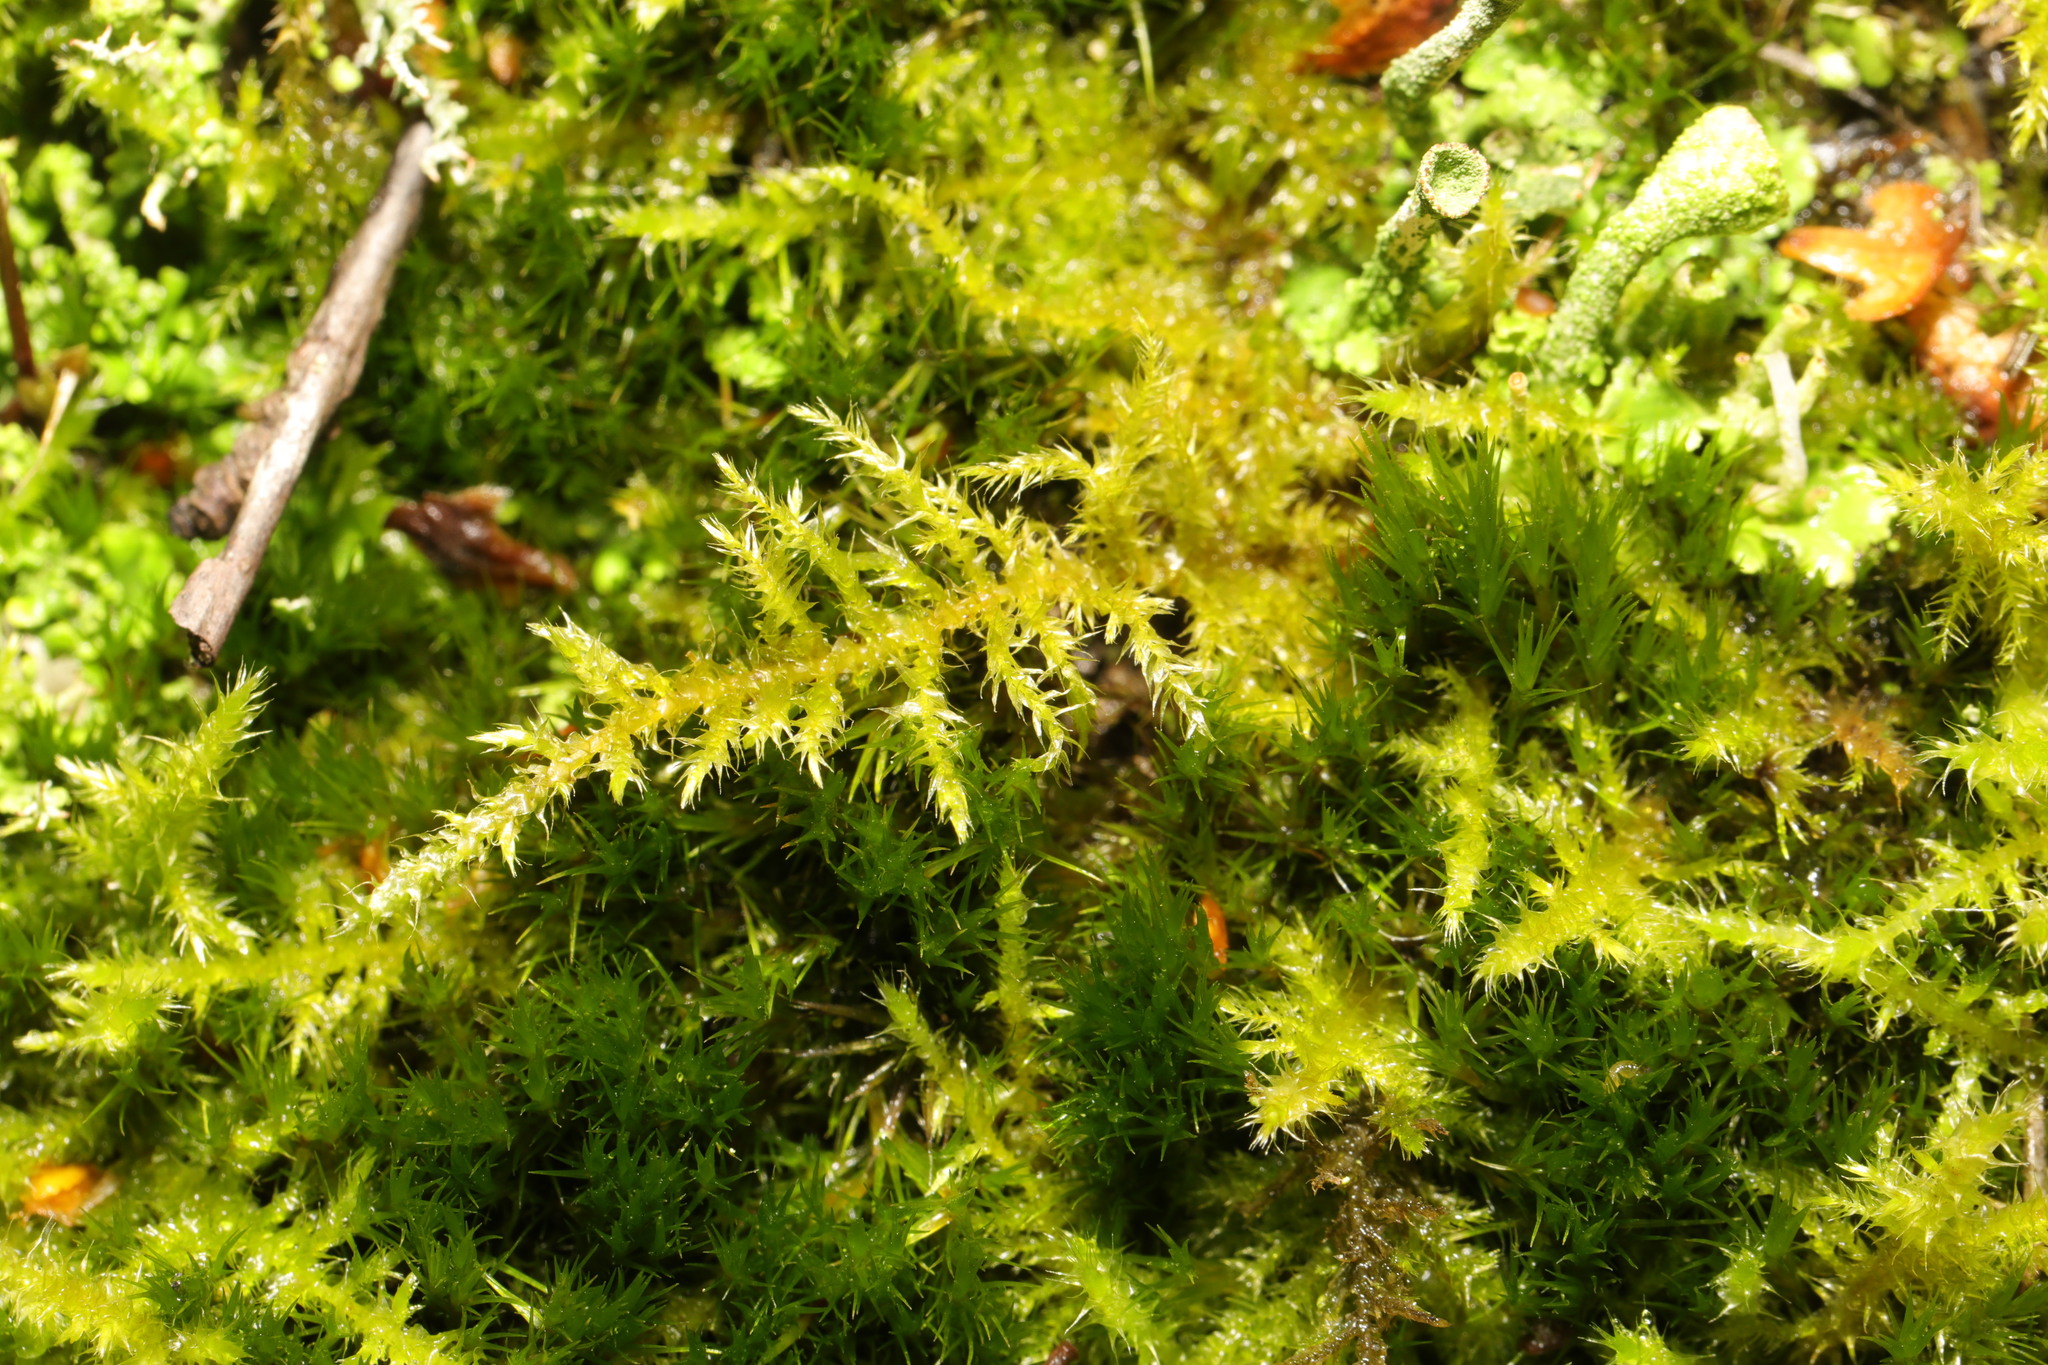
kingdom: Plantae
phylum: Bryophyta
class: Bryopsida
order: Hypnales
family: Brachytheciaceae
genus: Kindbergia
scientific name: Kindbergia praelonga
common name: Slender beaked moss
